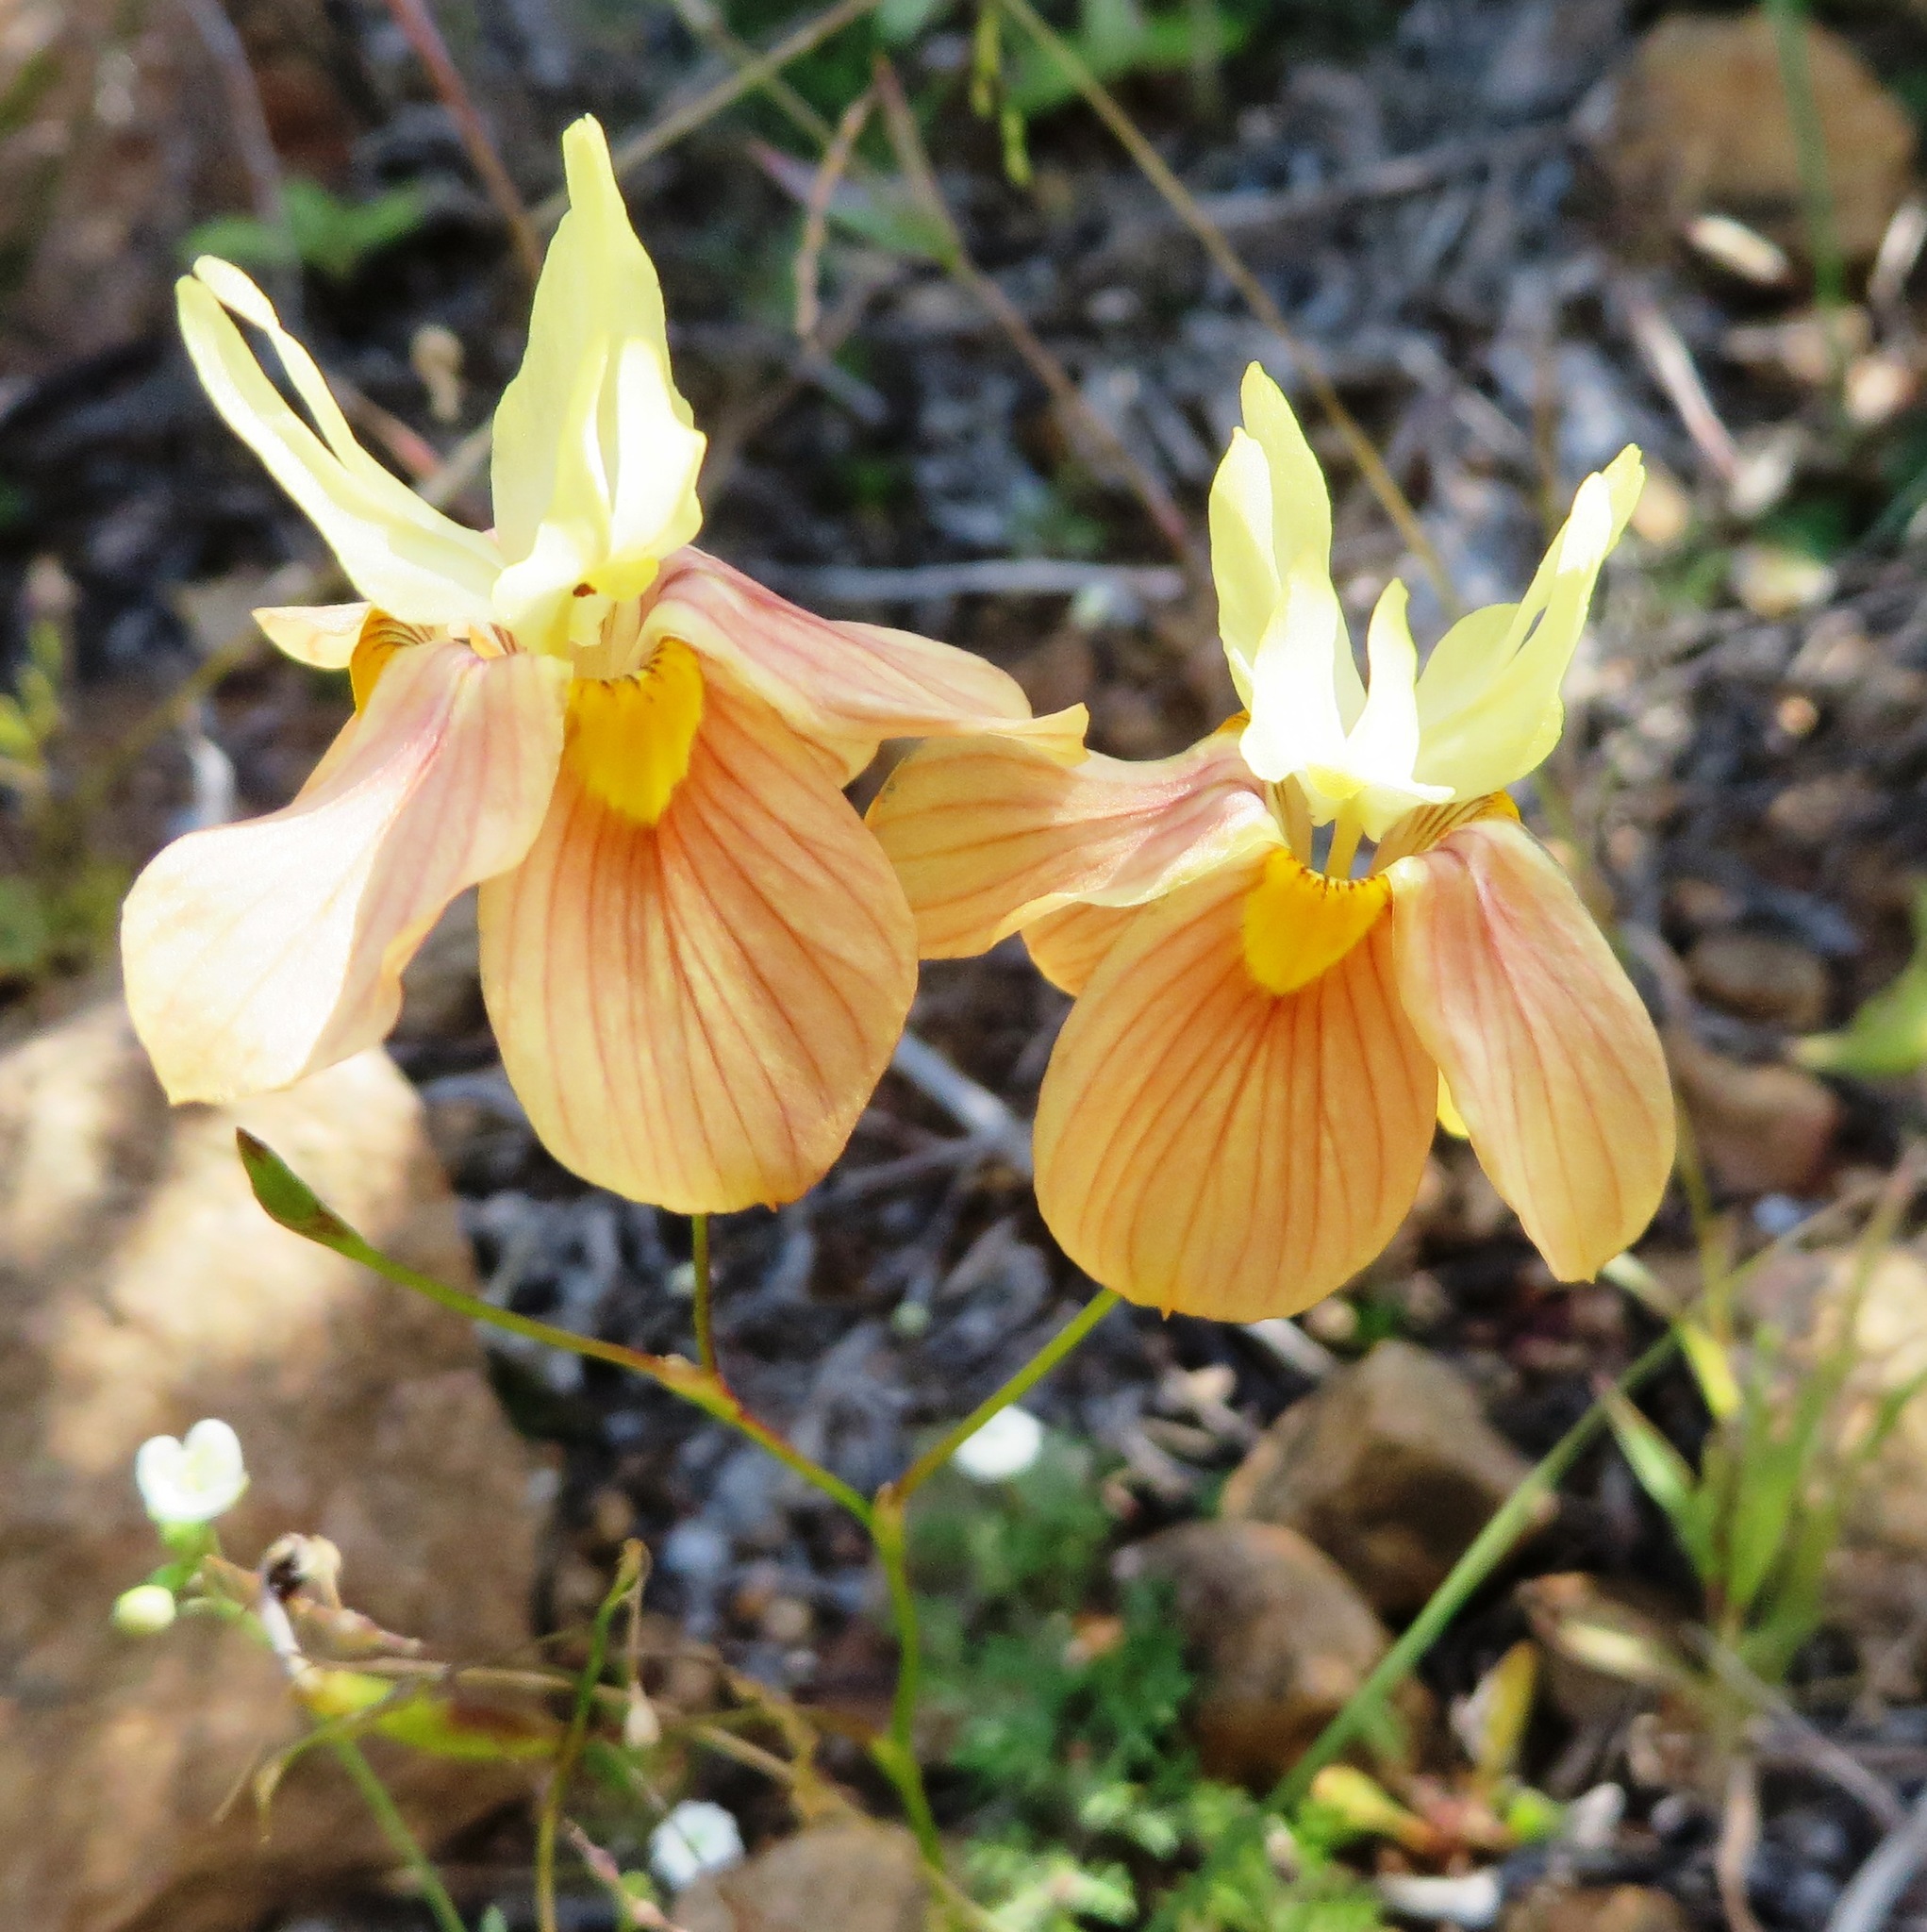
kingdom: Plantae
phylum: Tracheophyta
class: Liliopsida
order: Asparagales
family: Iridaceae
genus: Moraea
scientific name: Moraea gawleri
